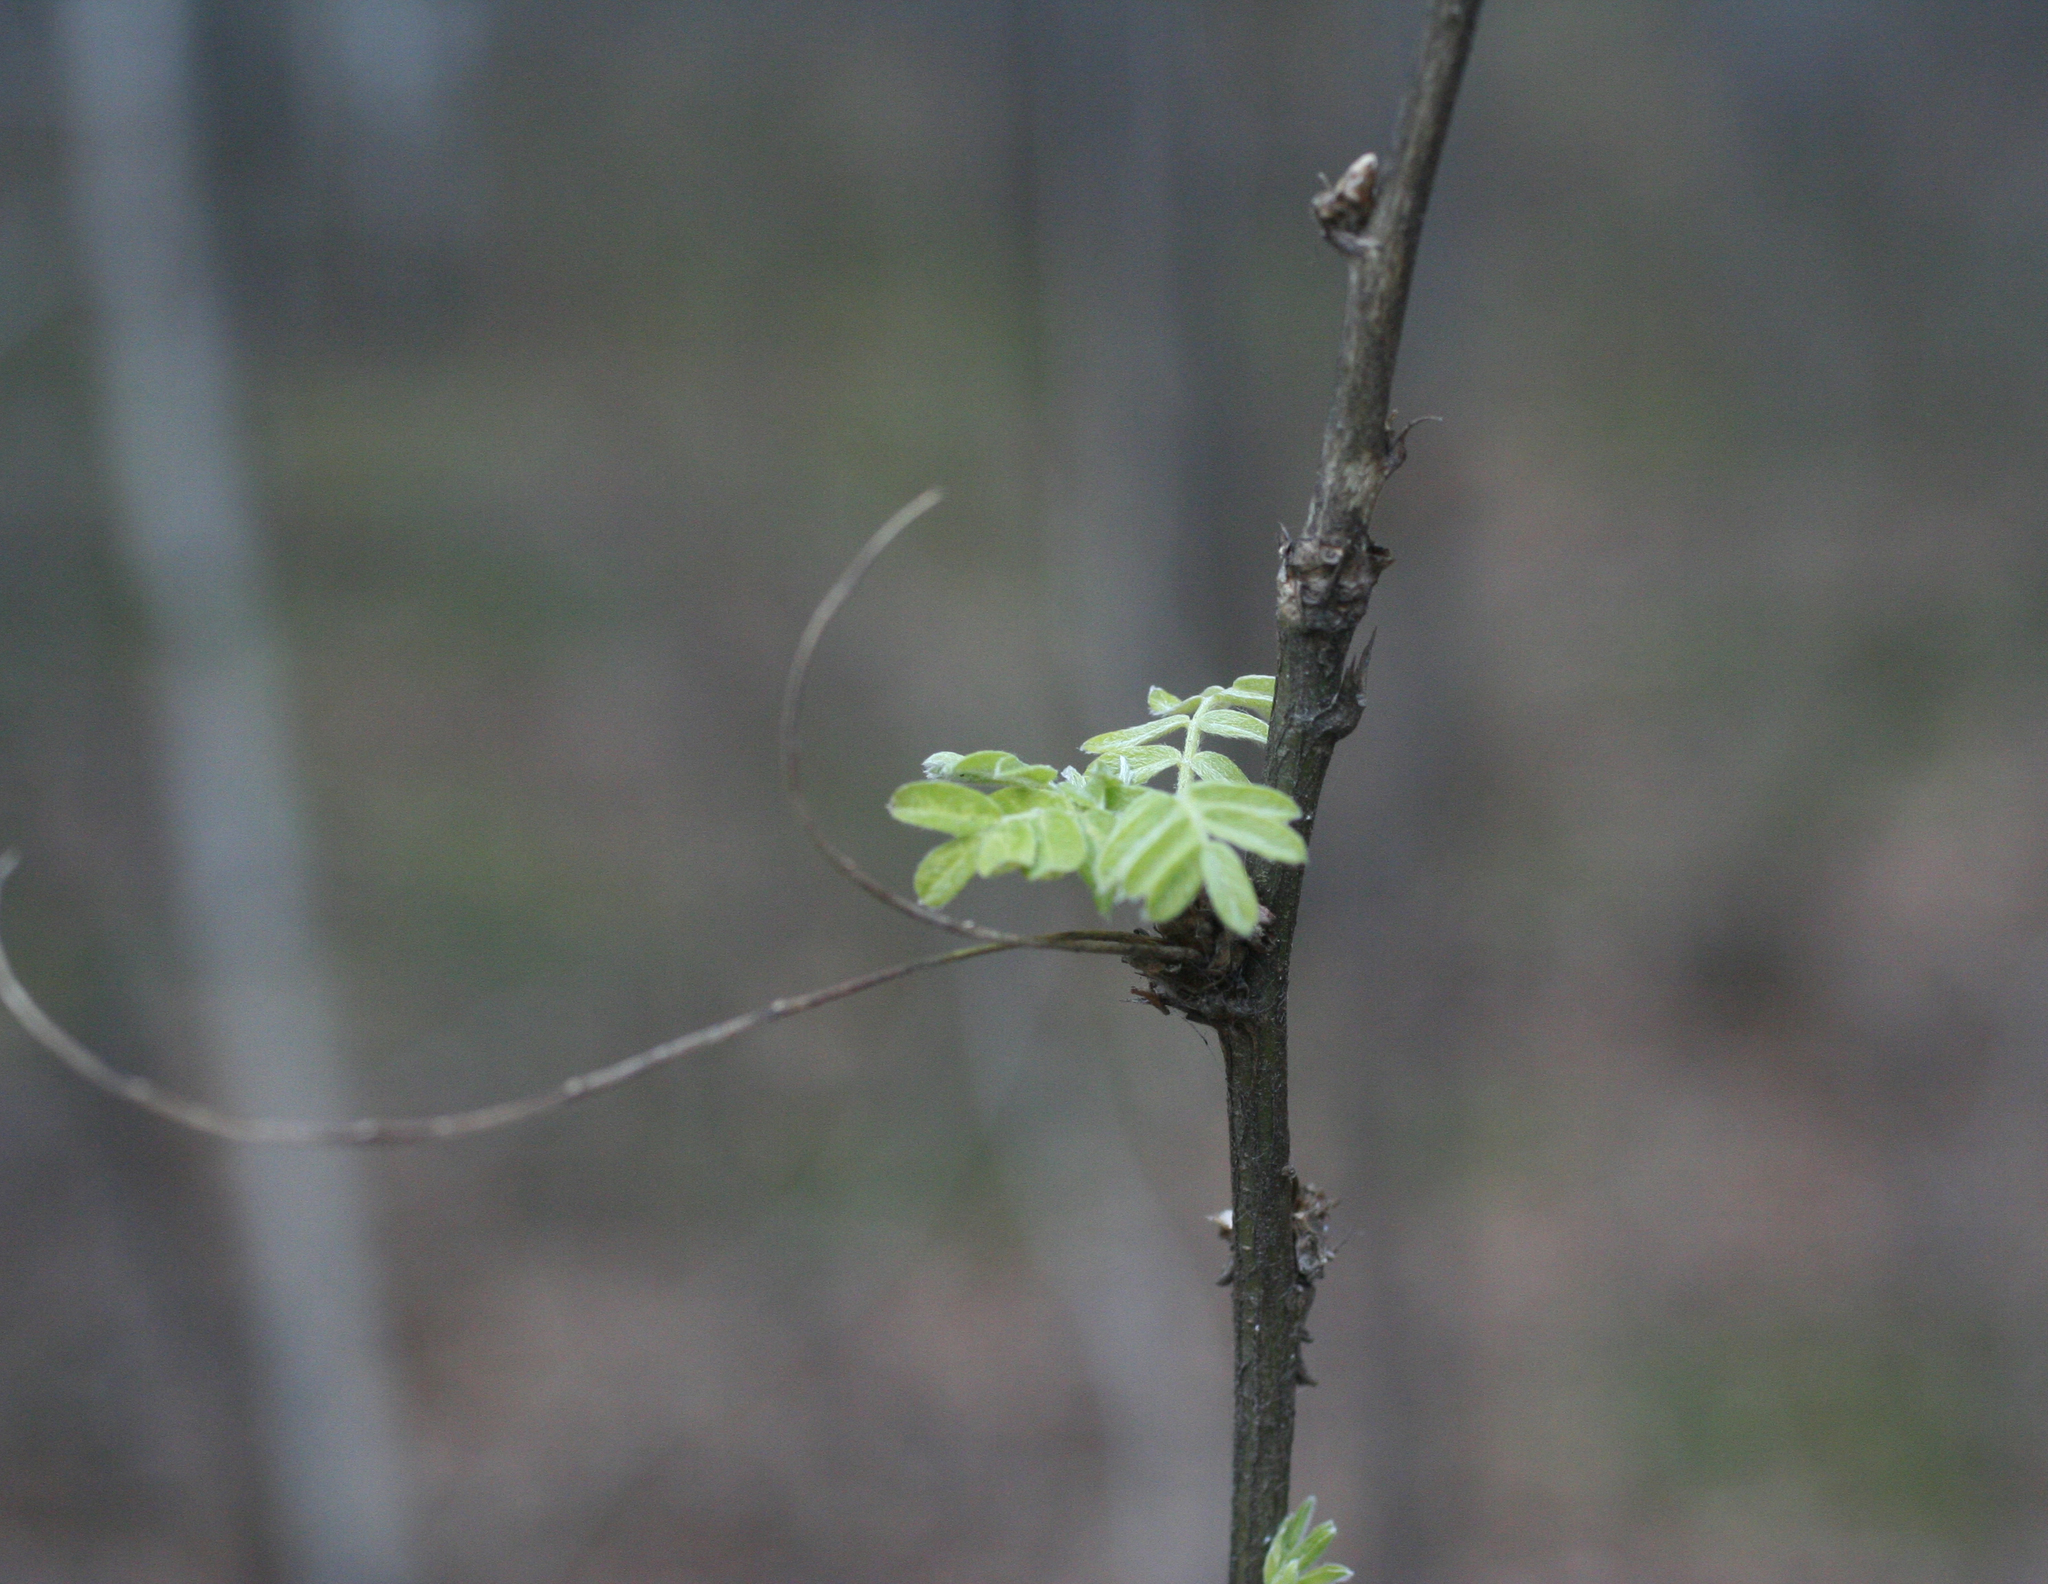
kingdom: Plantae
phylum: Tracheophyta
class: Magnoliopsida
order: Fabales
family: Fabaceae
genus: Caragana
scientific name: Caragana arborescens
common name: Siberian peashrub
